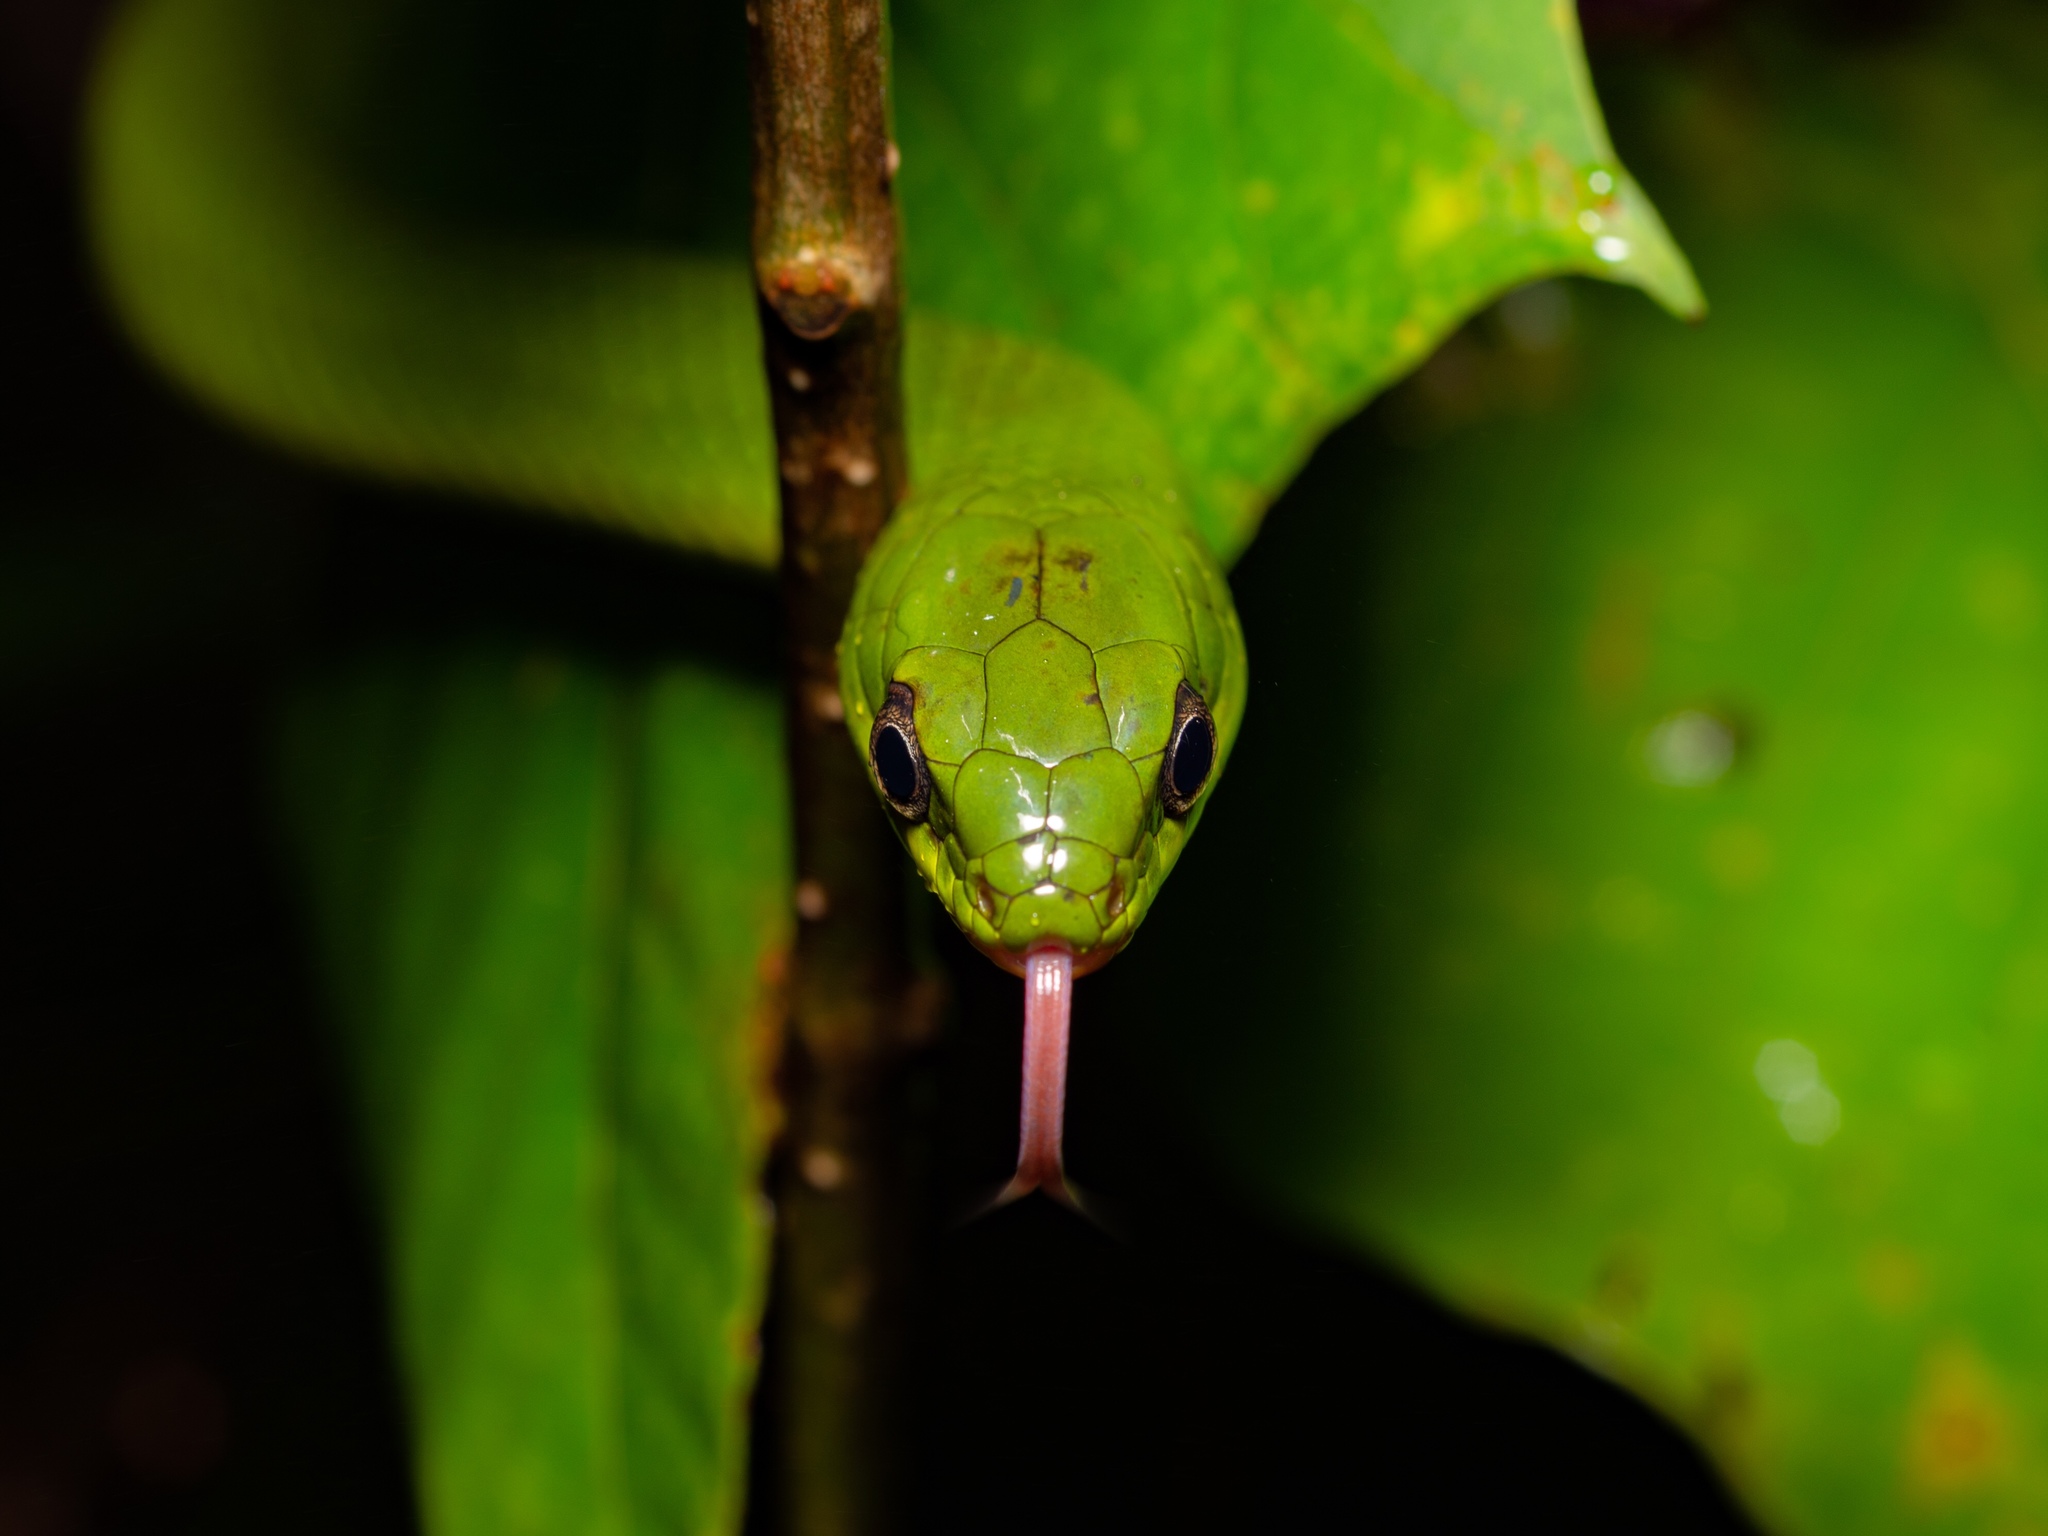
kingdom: Animalia
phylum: Chordata
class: Squamata
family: Colubridae
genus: Ptyas
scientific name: Ptyas major
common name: Chinese green snake
